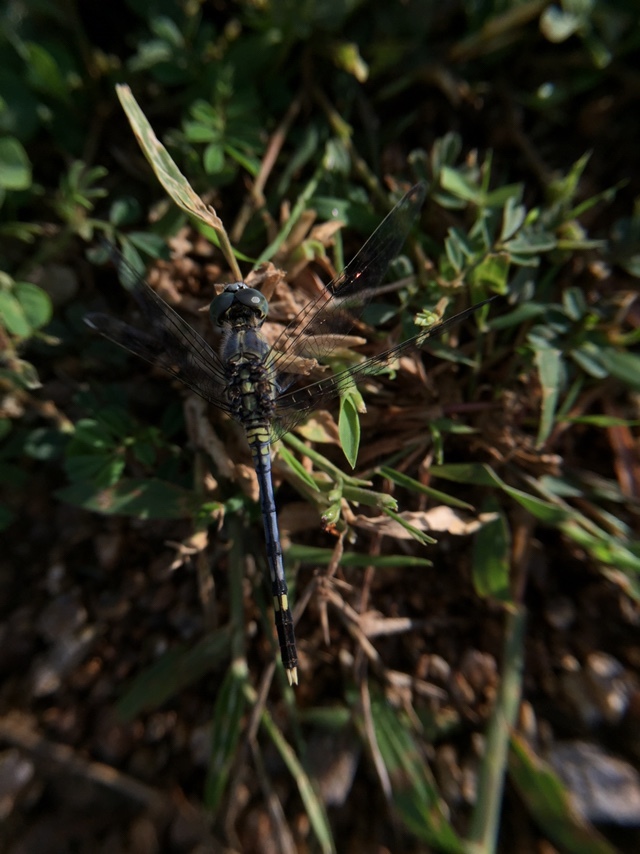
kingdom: Animalia
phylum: Arthropoda
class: Insecta
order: Odonata
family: Libellulidae
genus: Diplacodes
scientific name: Diplacodes trivialis
